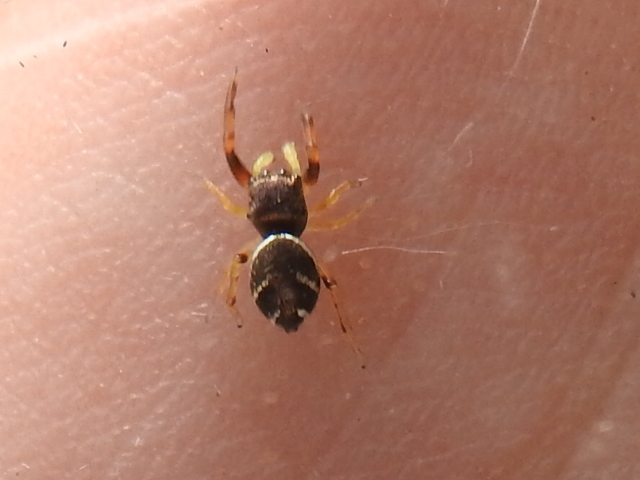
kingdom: Animalia
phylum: Arthropoda
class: Arachnida
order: Araneae
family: Salticidae
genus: Zygoballus
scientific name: Zygoballus rufipes
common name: Jumping spiders
